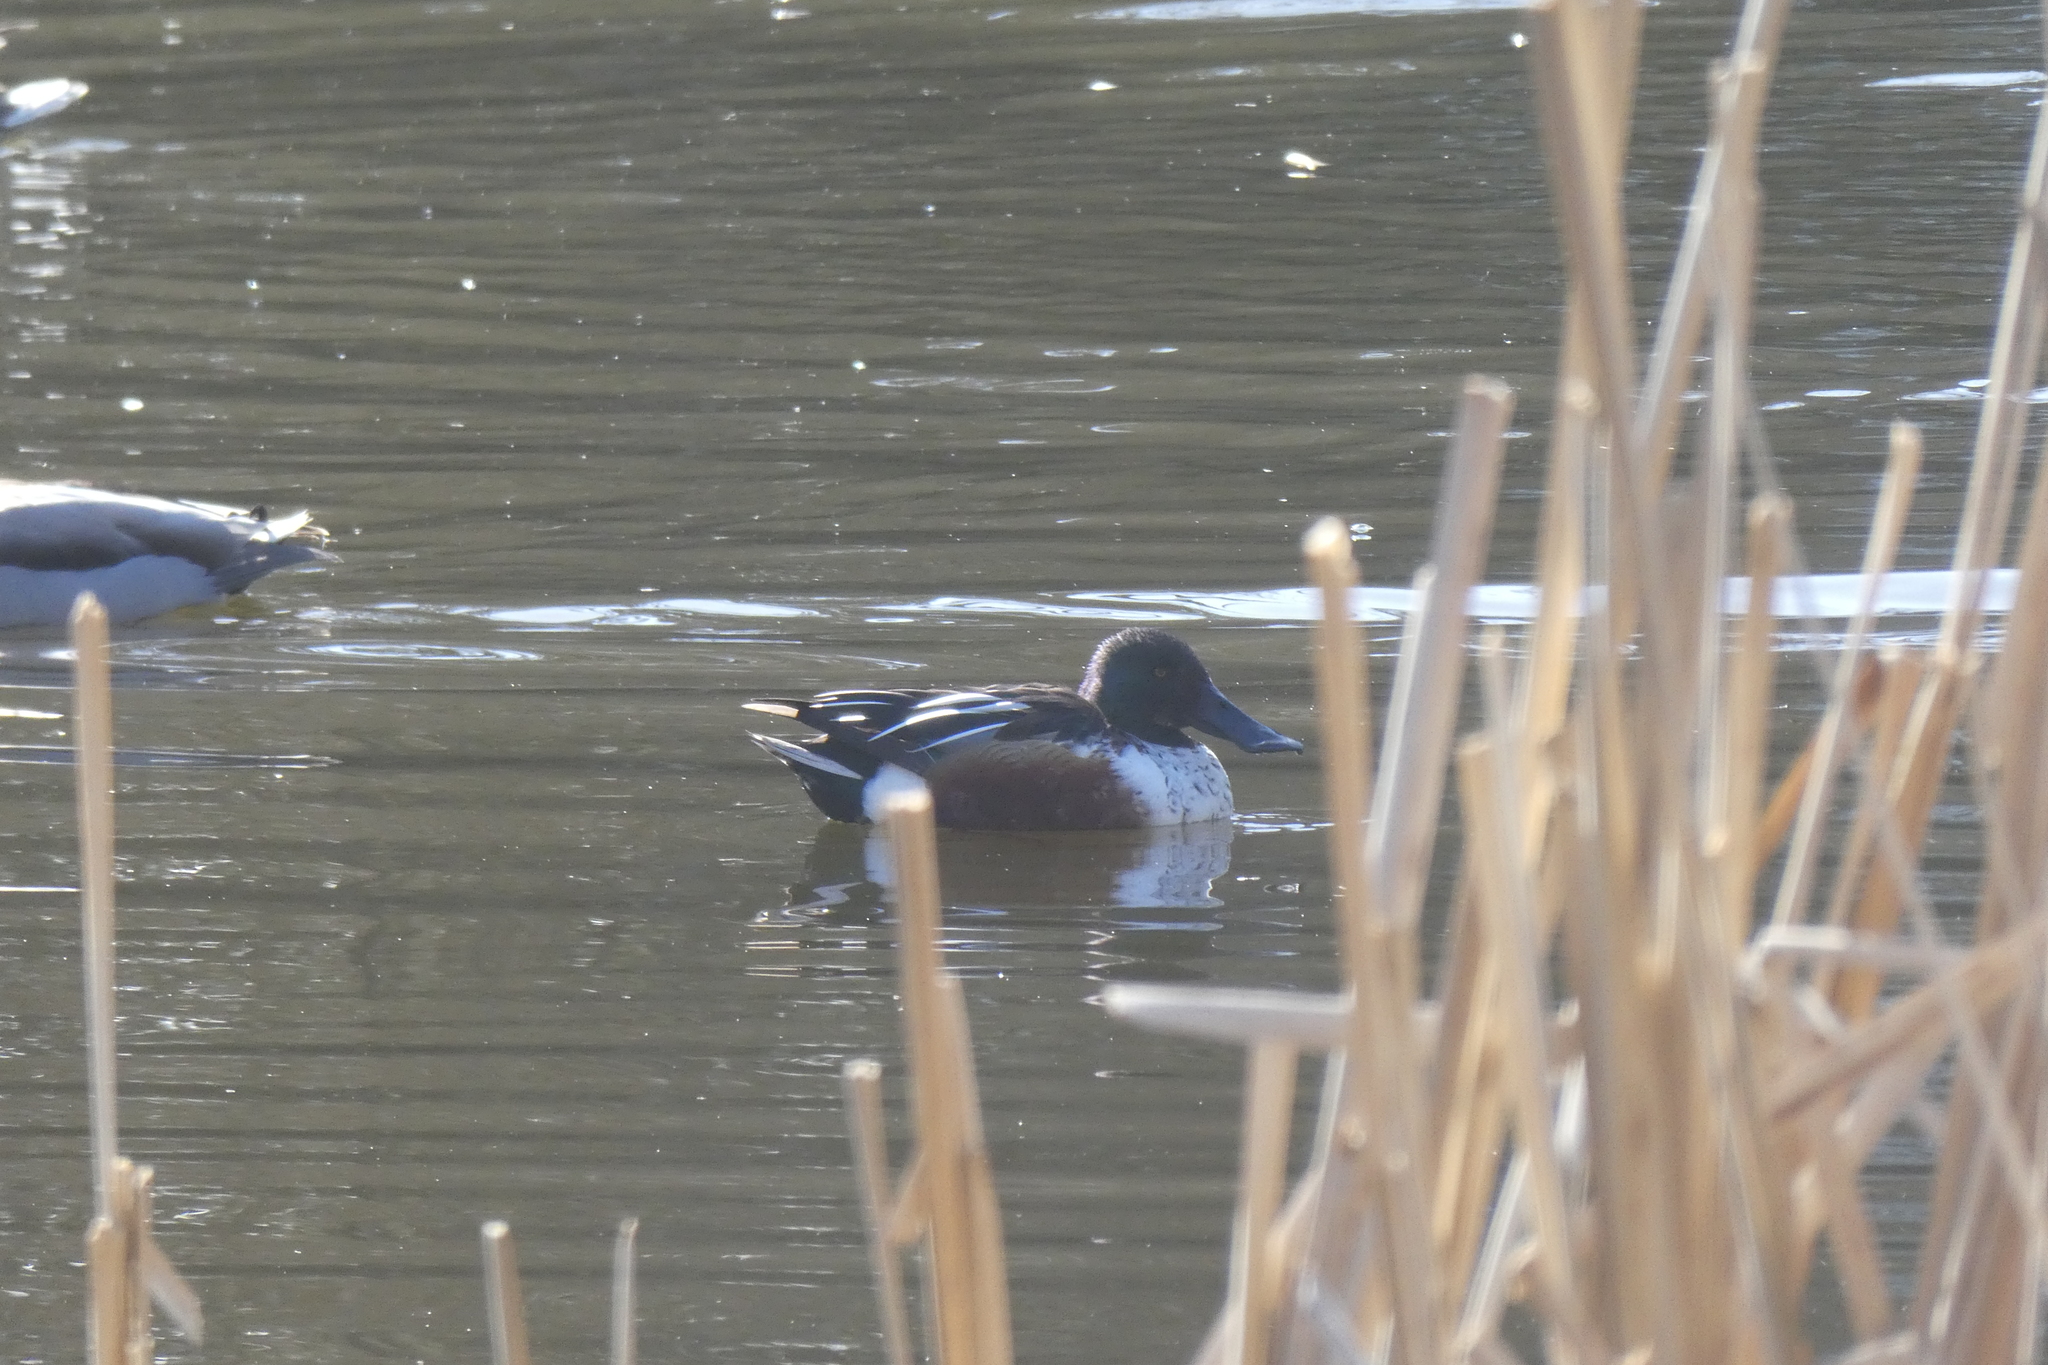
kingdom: Animalia
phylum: Chordata
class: Aves
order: Anseriformes
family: Anatidae
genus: Spatula
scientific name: Spatula clypeata
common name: Northern shoveler
